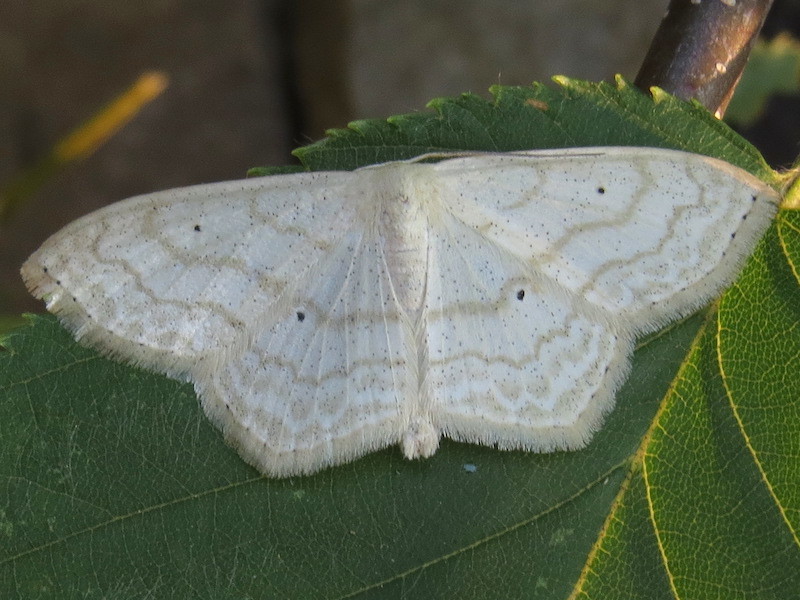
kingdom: Animalia
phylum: Arthropoda
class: Insecta
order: Lepidoptera
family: Geometridae
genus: Scopula
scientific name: Scopula limboundata
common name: Large lace border
